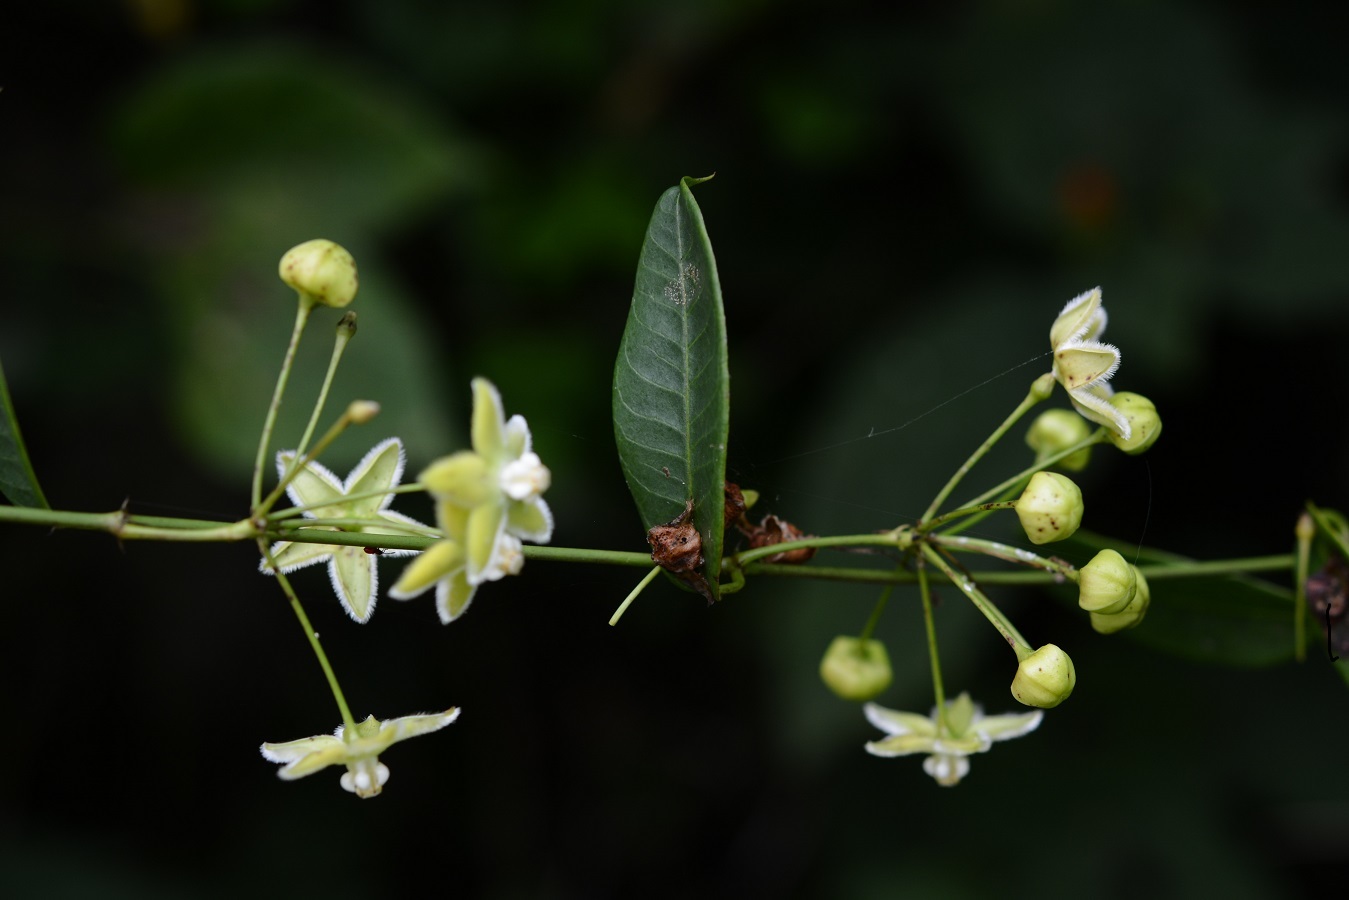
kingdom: Plantae
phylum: Tracheophyta
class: Magnoliopsida
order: Gentianales
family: Apocynaceae
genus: Vailia
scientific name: Vailia anomala
